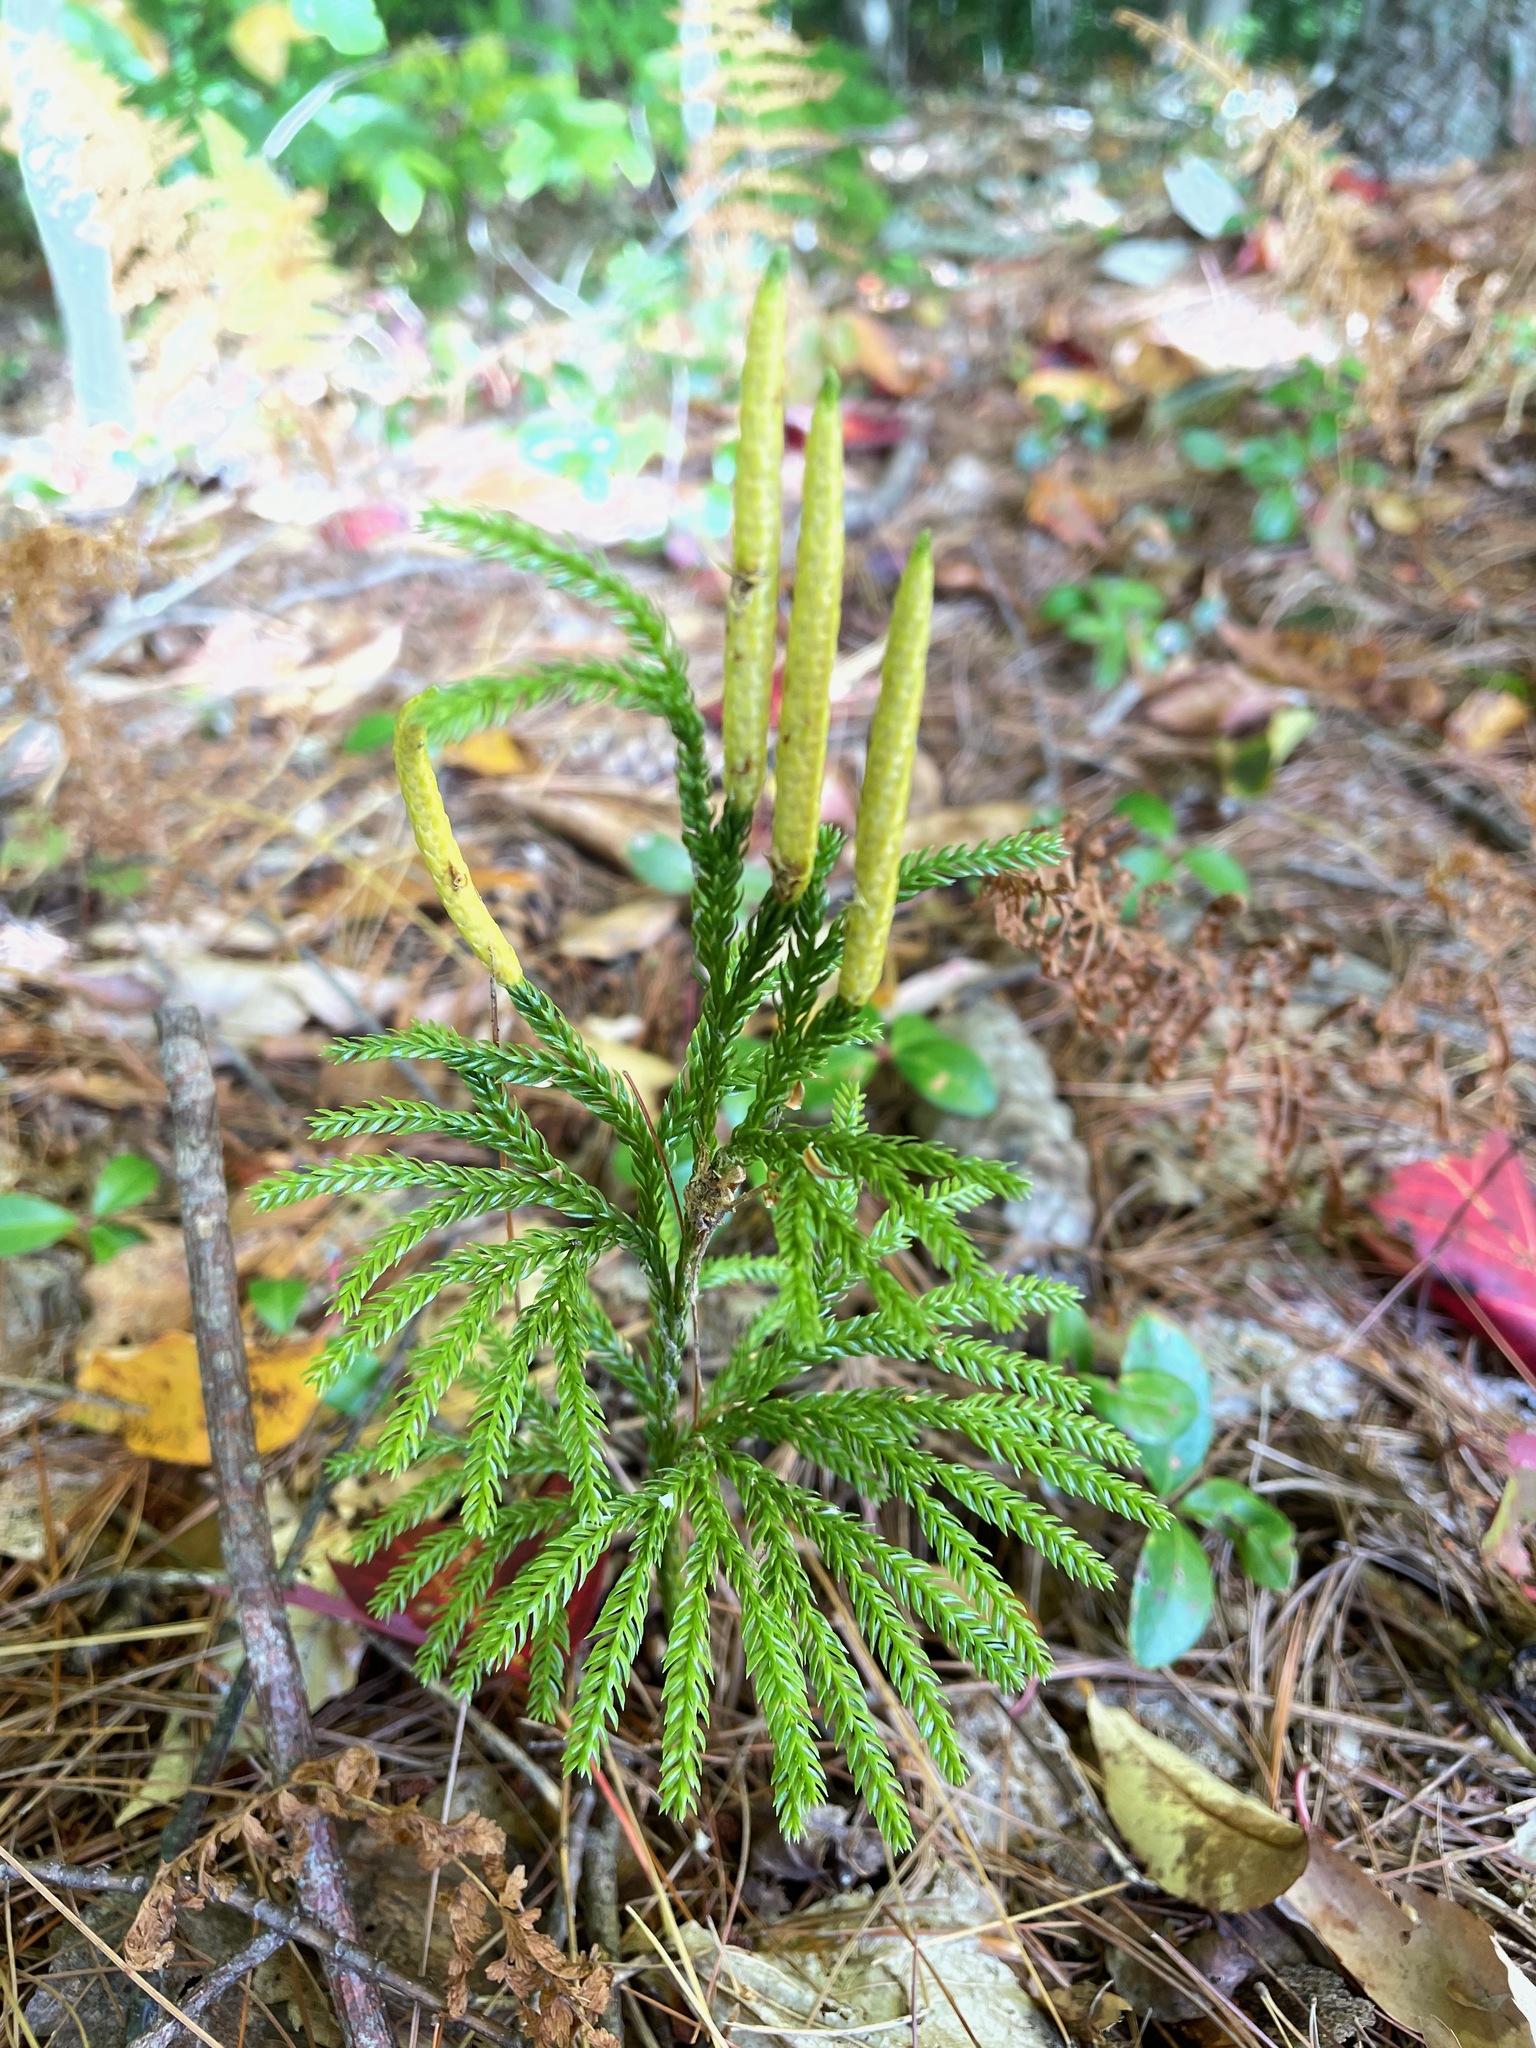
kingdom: Plantae
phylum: Tracheophyta
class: Lycopodiopsida
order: Lycopodiales
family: Lycopodiaceae
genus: Dendrolycopodium
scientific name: Dendrolycopodium obscurum
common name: Common ground-pine
